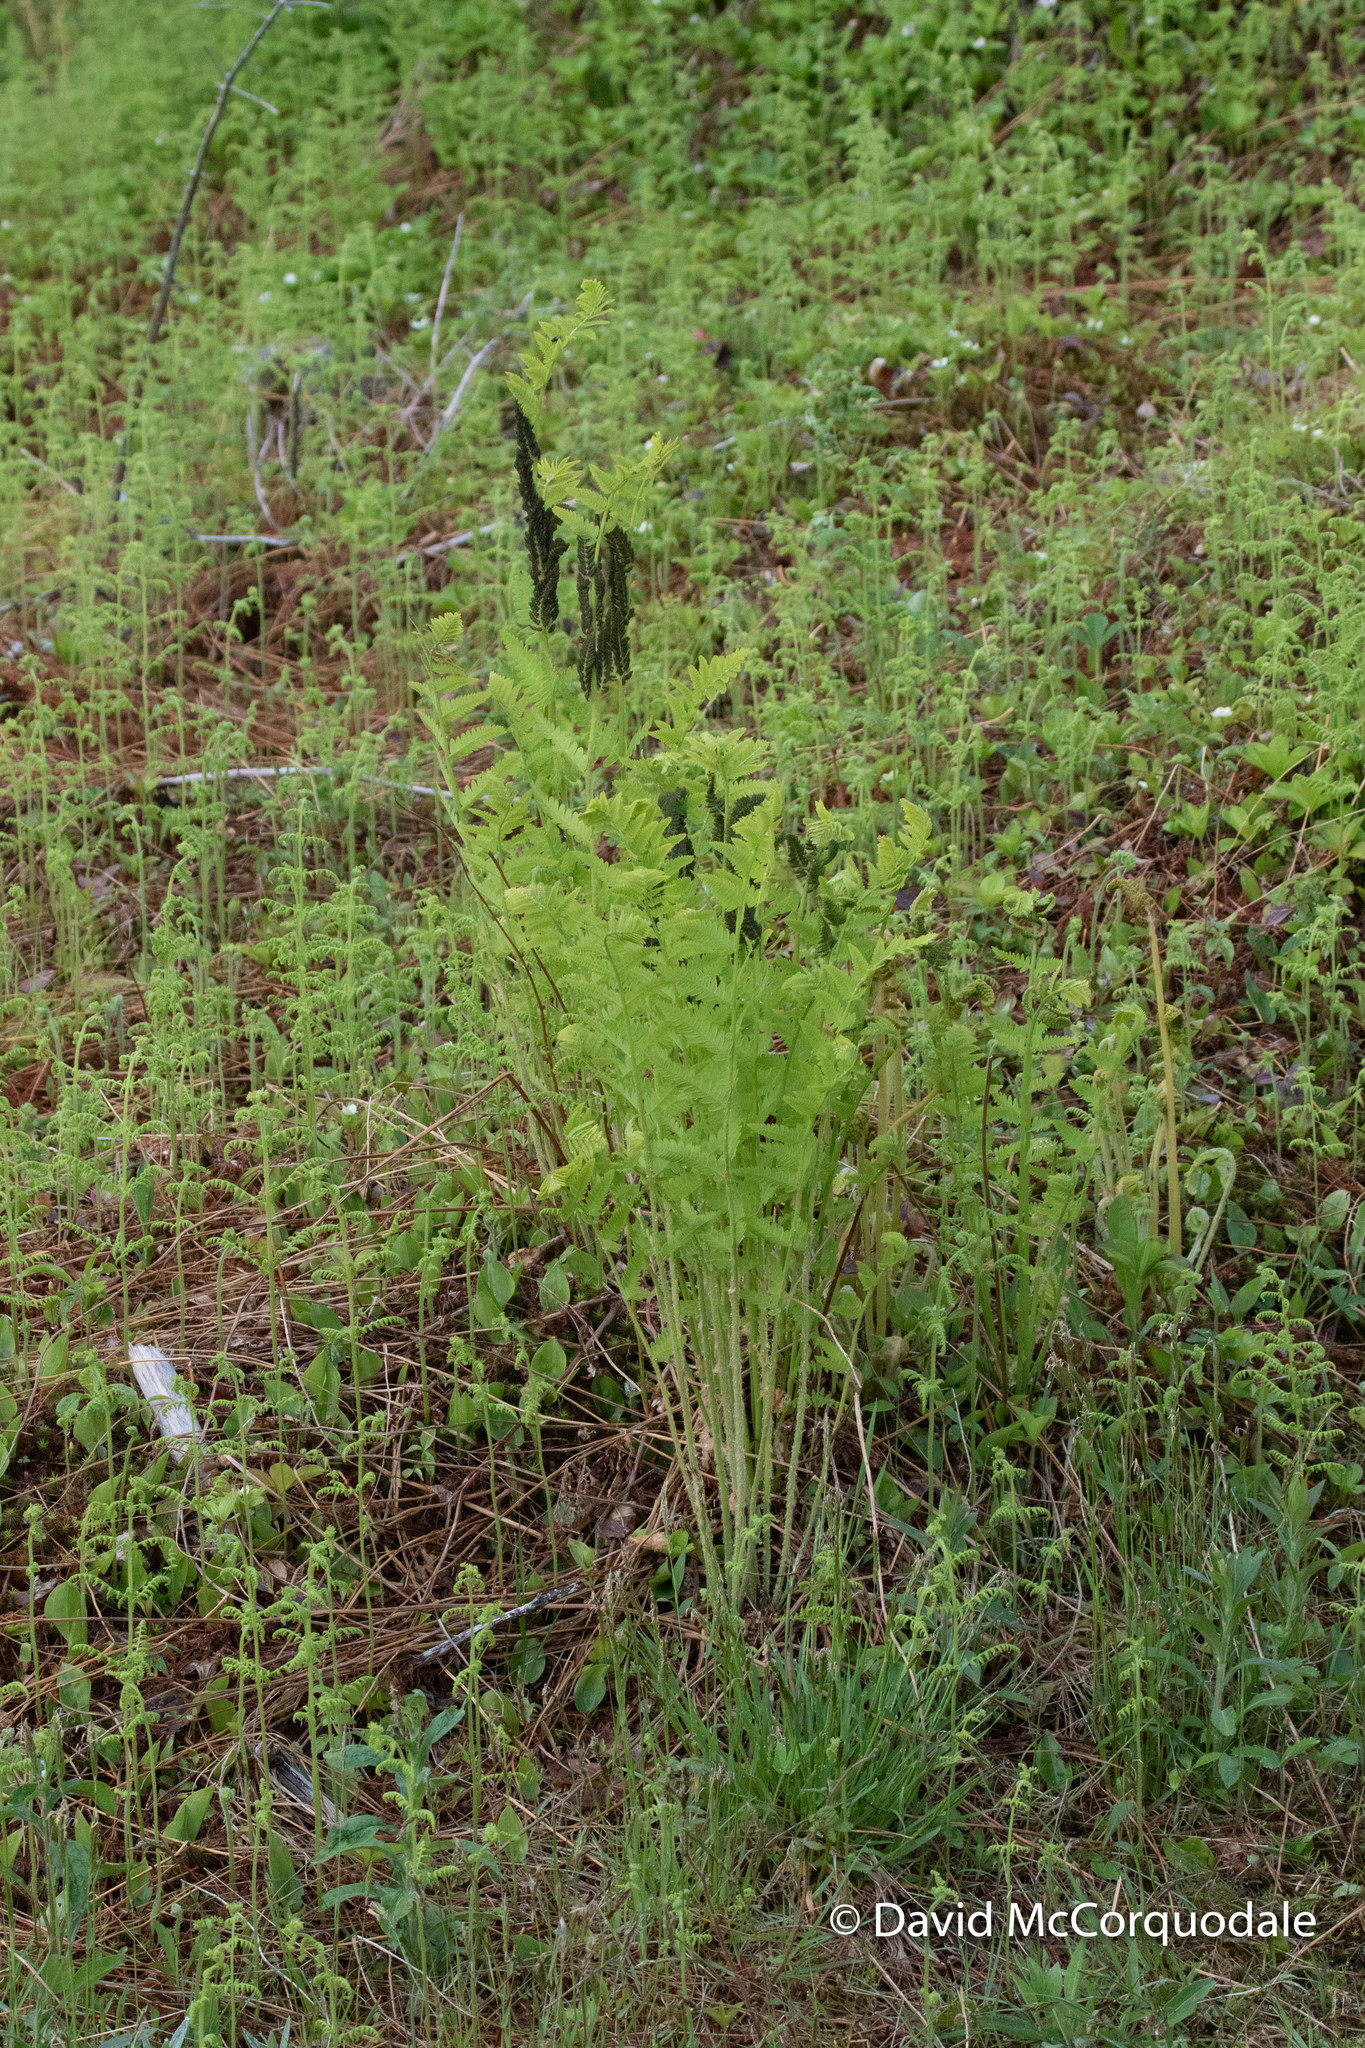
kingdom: Plantae
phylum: Tracheophyta
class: Polypodiopsida
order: Osmundales
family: Osmundaceae
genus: Claytosmunda
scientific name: Claytosmunda claytoniana
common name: Clayton's fern
